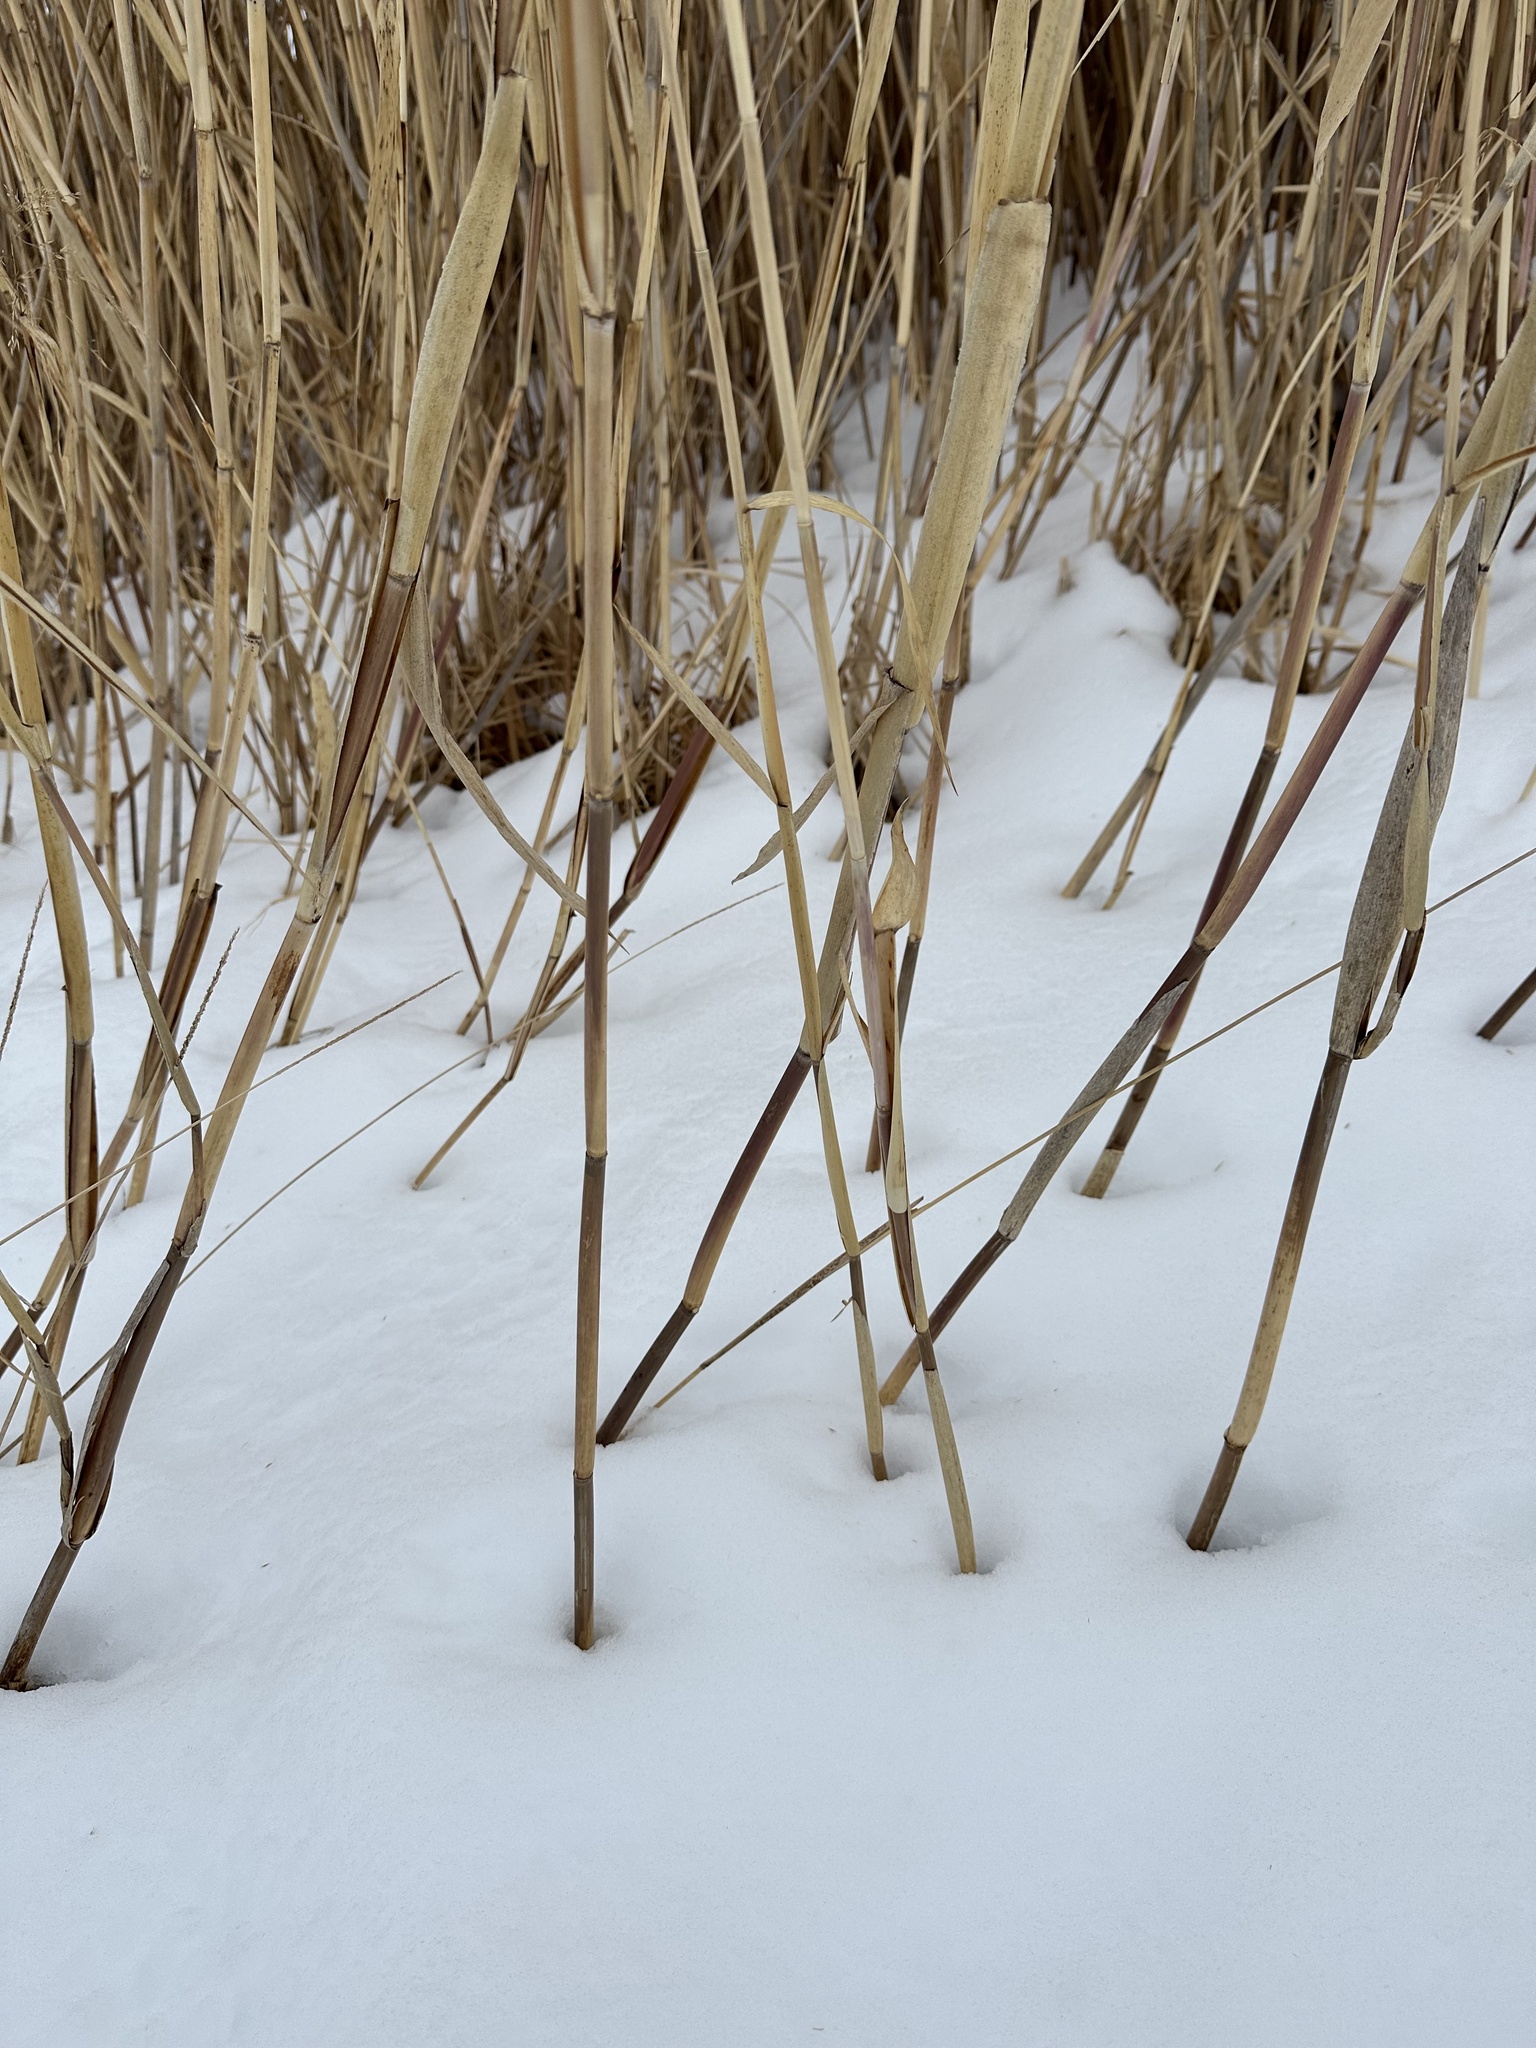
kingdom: Plantae
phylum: Tracheophyta
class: Liliopsida
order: Poales
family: Poaceae
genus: Phragmites
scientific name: Phragmites australis
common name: Common reed
